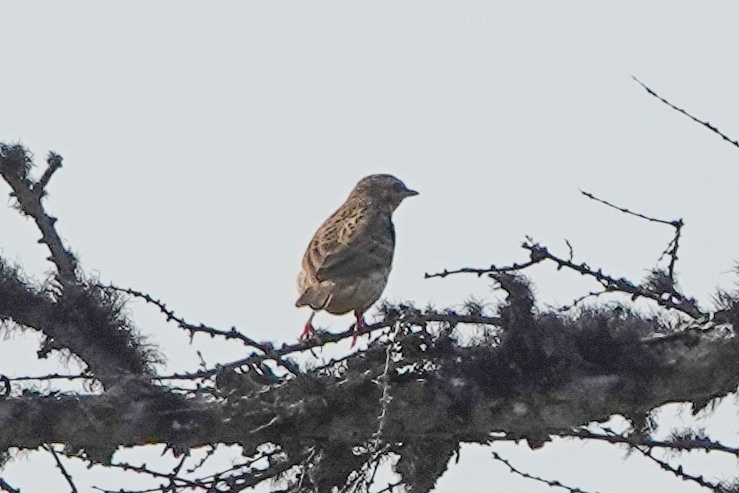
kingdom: Animalia
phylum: Chordata
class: Aves
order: Passeriformes
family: Motacillidae
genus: Anthus
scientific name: Anthus hodgsoni
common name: Olive-backed pipit
